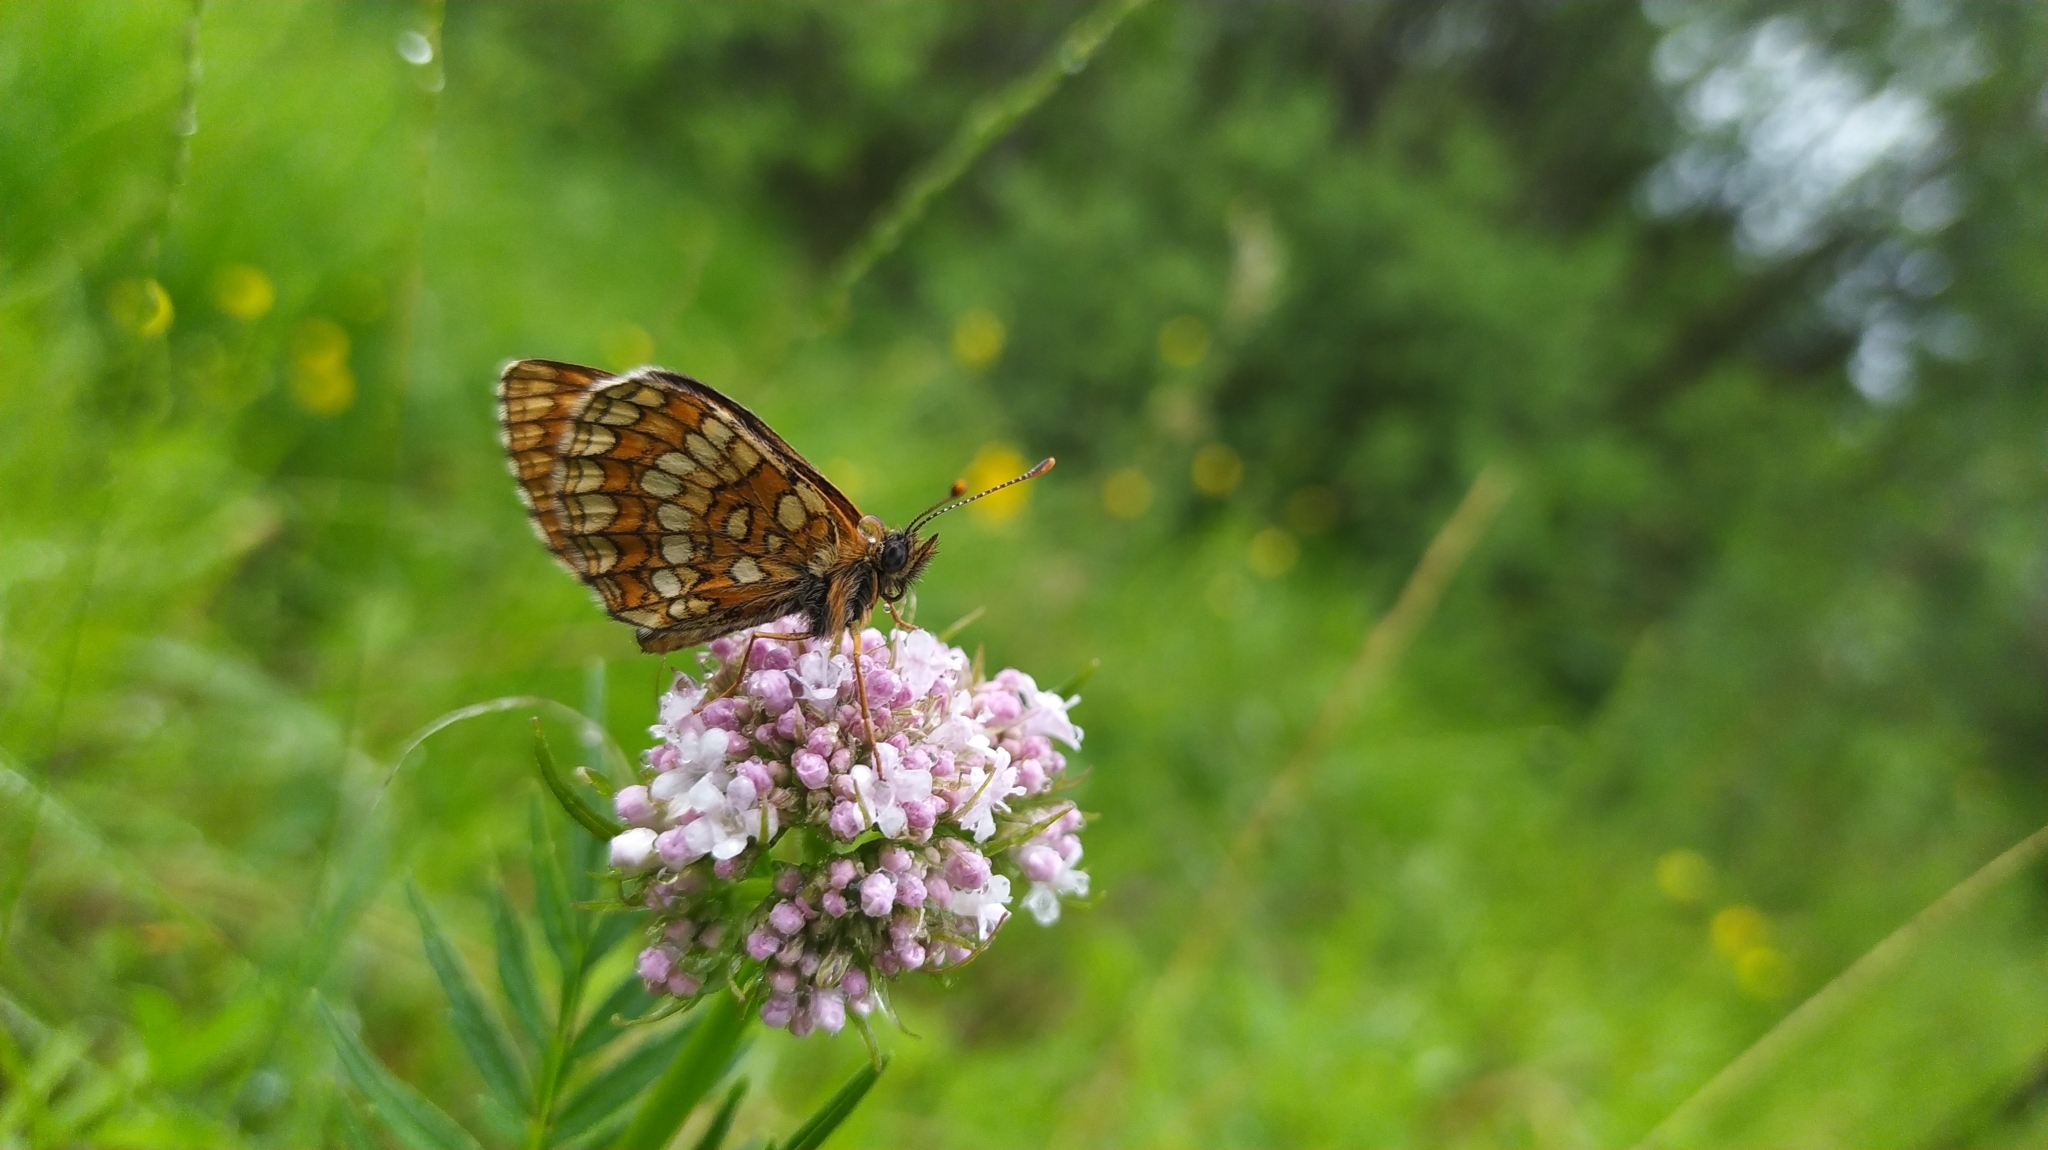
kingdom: Animalia
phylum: Arthropoda
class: Insecta
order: Lepidoptera
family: Nymphalidae
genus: Melitaea
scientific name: Melitaea
